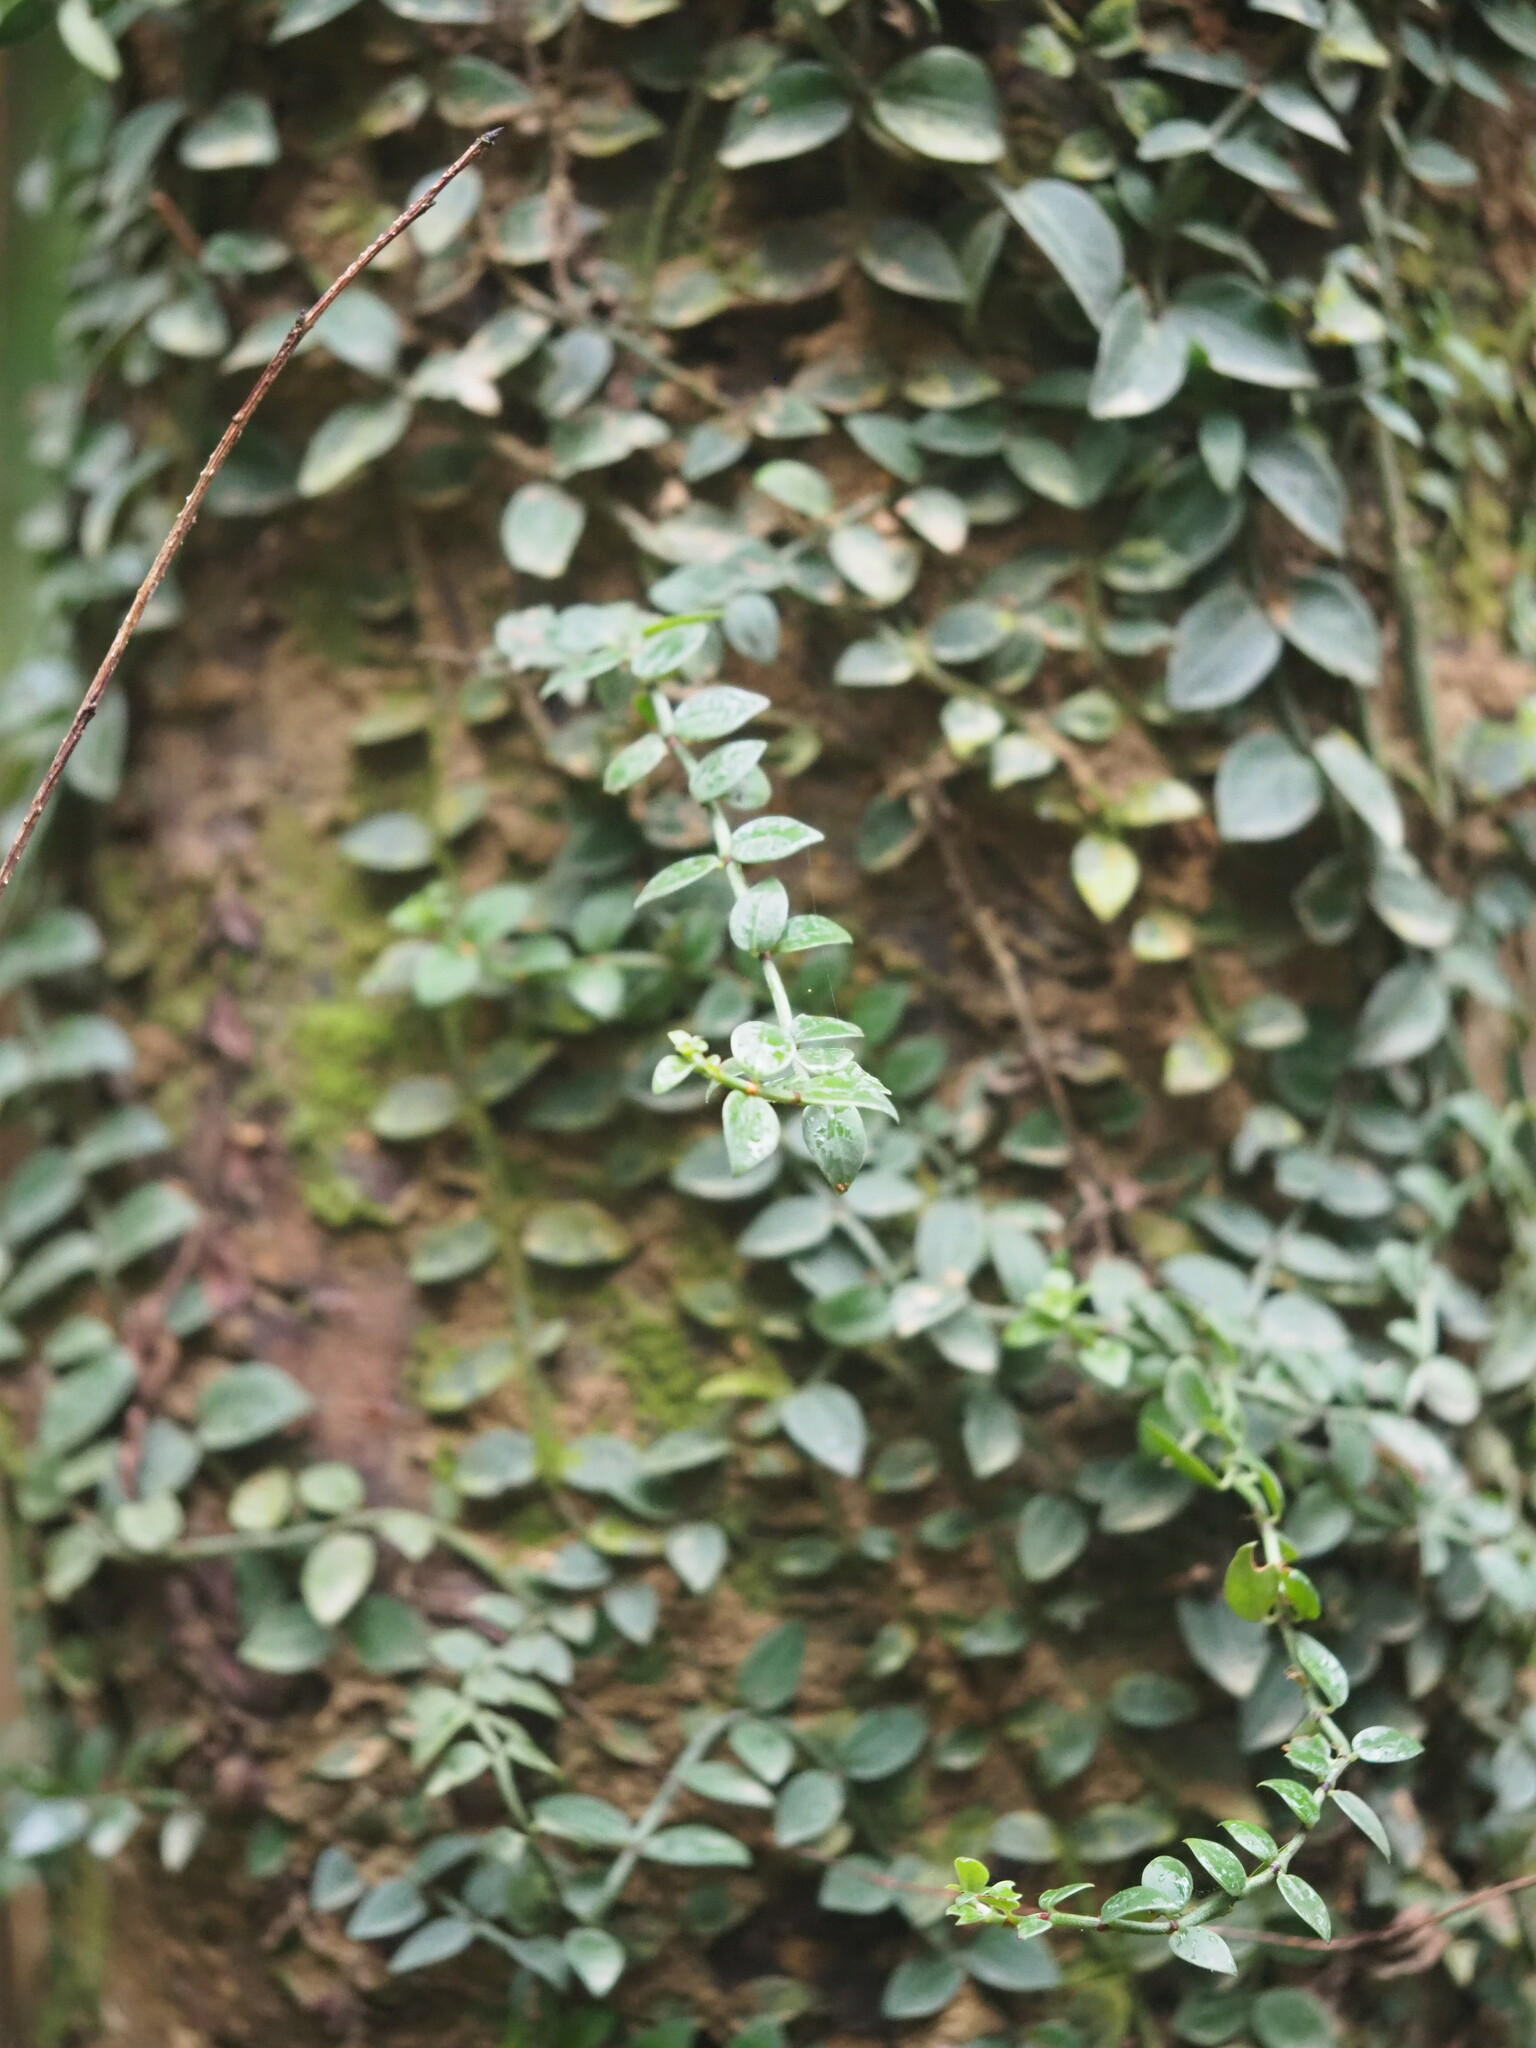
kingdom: Plantae
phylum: Tracheophyta
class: Magnoliopsida
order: Gentianales
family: Rubiaceae
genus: Psychotria
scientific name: Psychotria serpens
